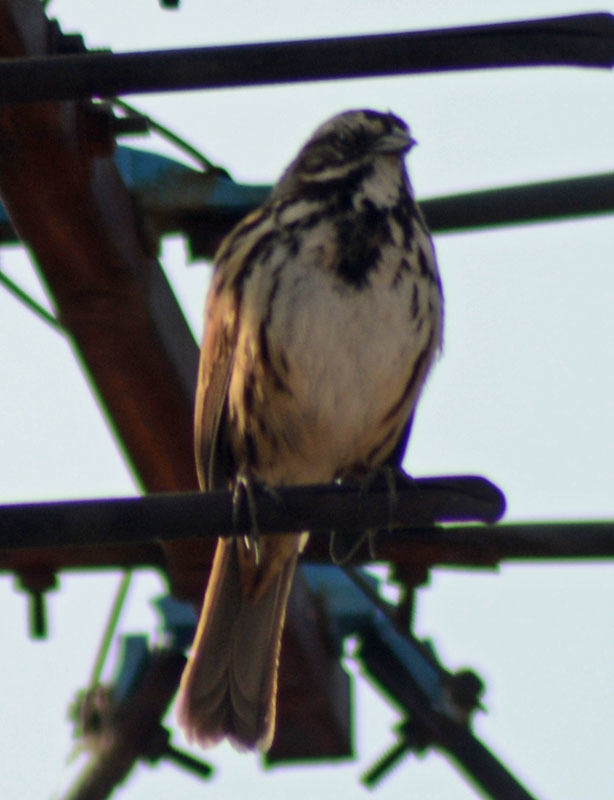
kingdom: Animalia
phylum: Chordata
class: Aves
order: Passeriformes
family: Passerellidae
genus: Melospiza
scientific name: Melospiza melodia
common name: Song sparrow
